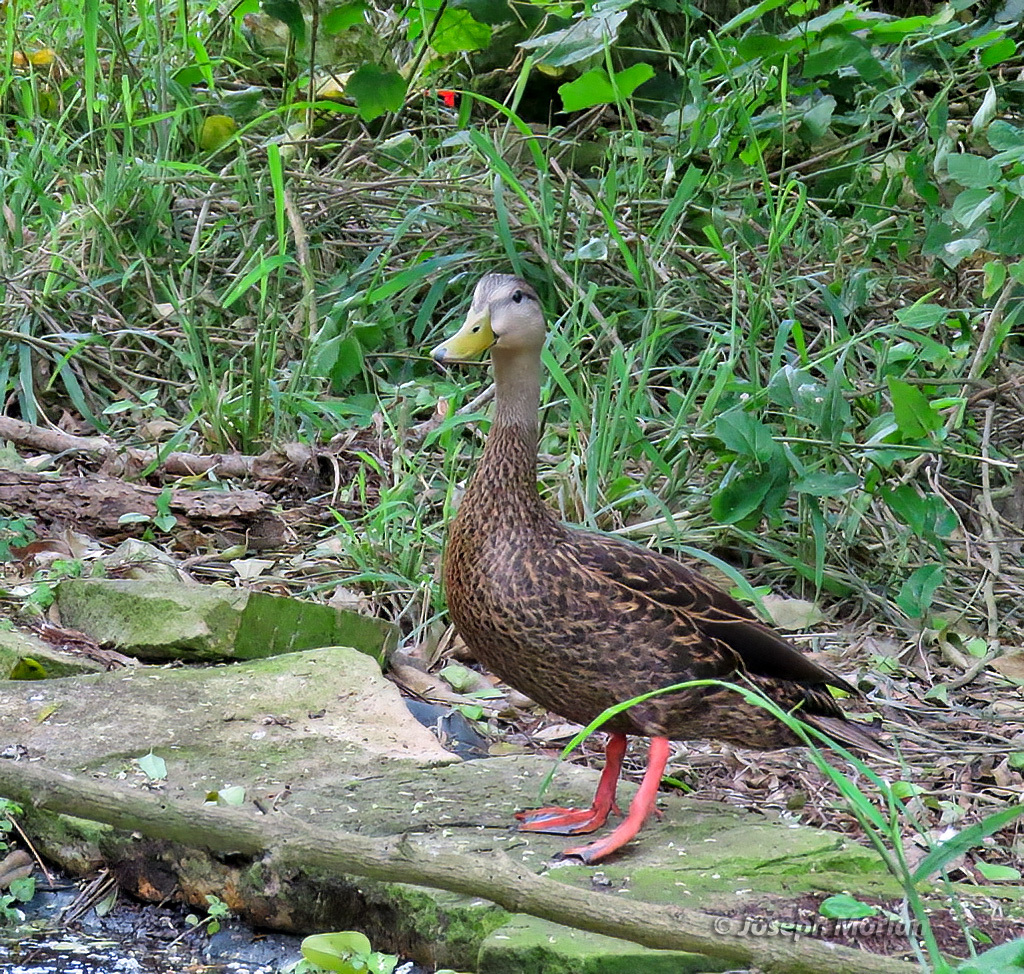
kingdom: Animalia
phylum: Chordata
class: Aves
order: Anseriformes
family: Anatidae
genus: Anas
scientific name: Anas fulvigula
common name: Mottled duck
